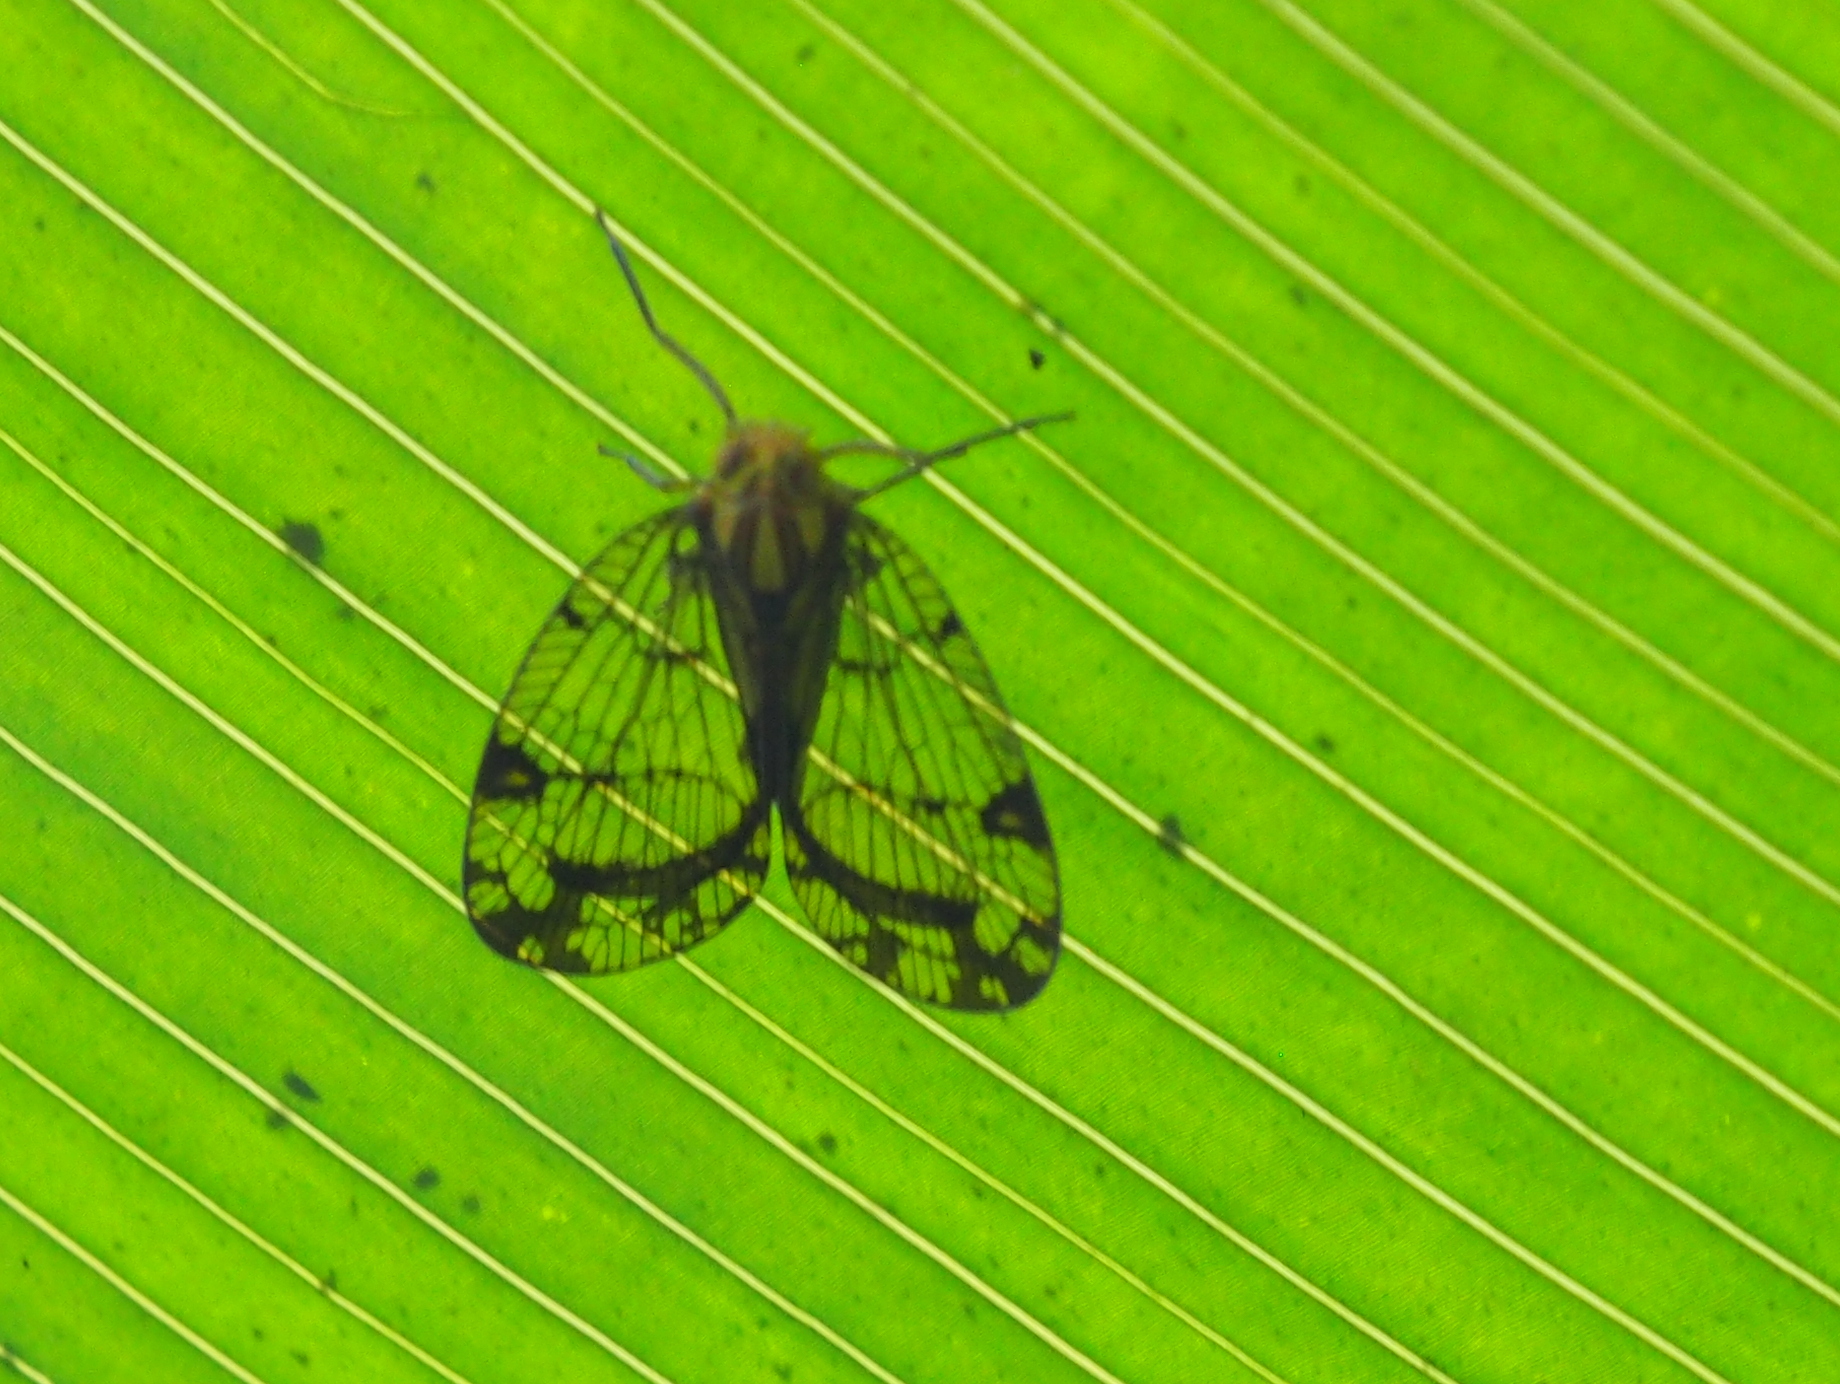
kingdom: Animalia
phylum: Arthropoda
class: Insecta
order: Hemiptera
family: Nogodinidae
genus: Biolleyana
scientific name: Biolleyana costalis
